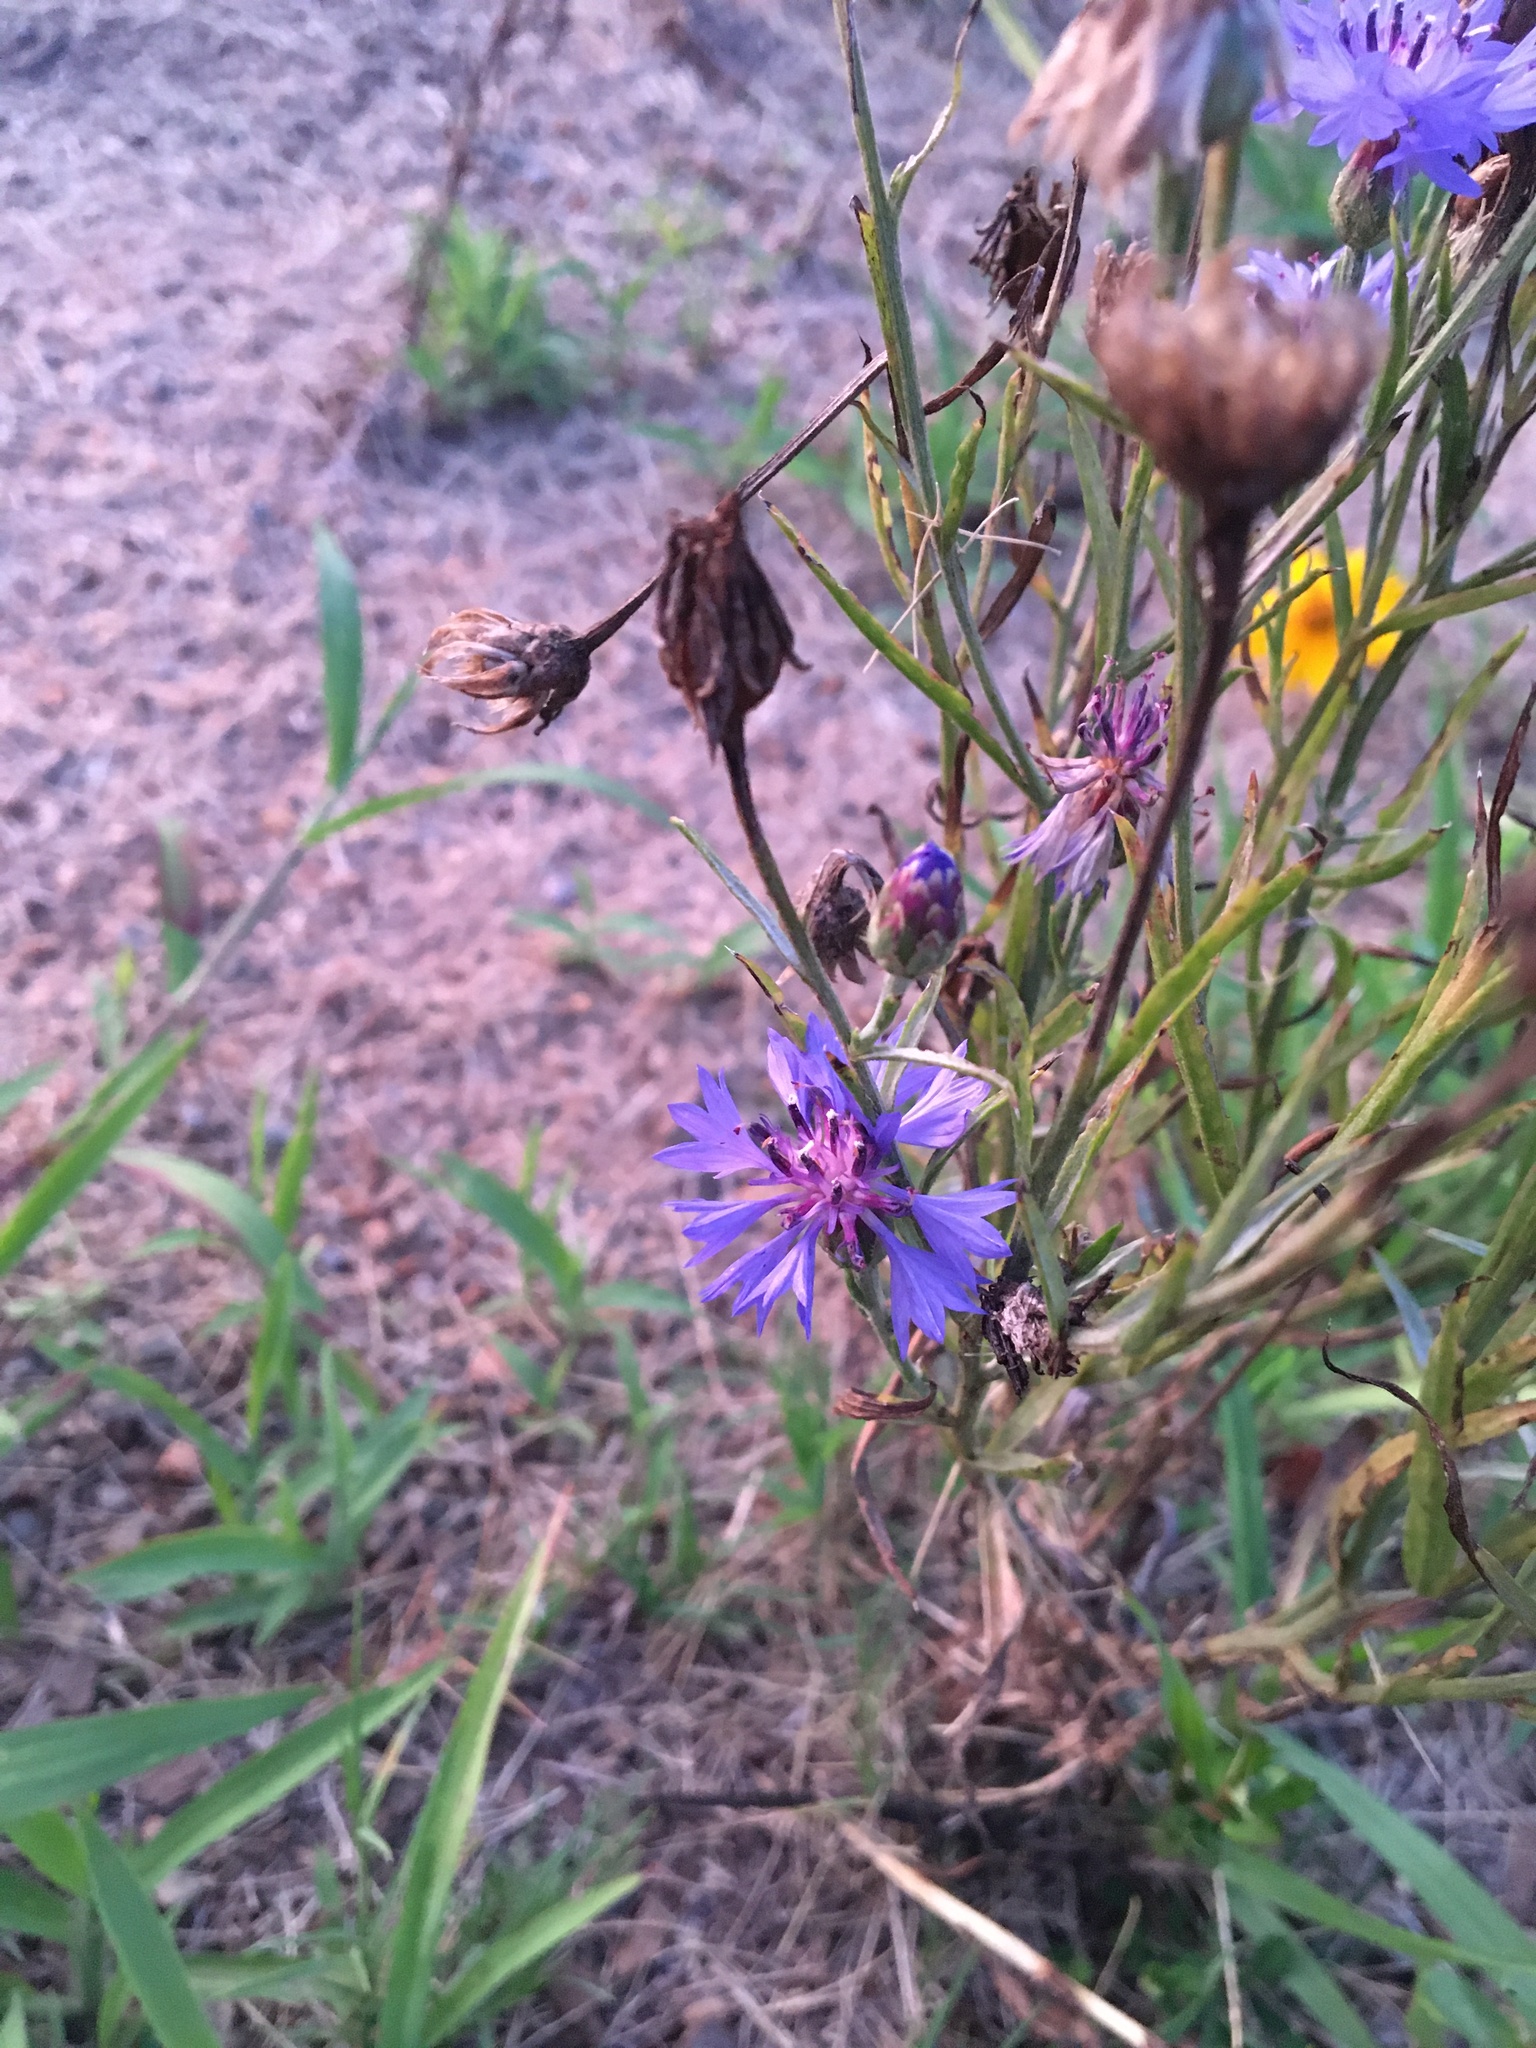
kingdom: Plantae
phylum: Tracheophyta
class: Magnoliopsida
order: Asterales
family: Asteraceae
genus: Centaurea
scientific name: Centaurea cyanus
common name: Cornflower
